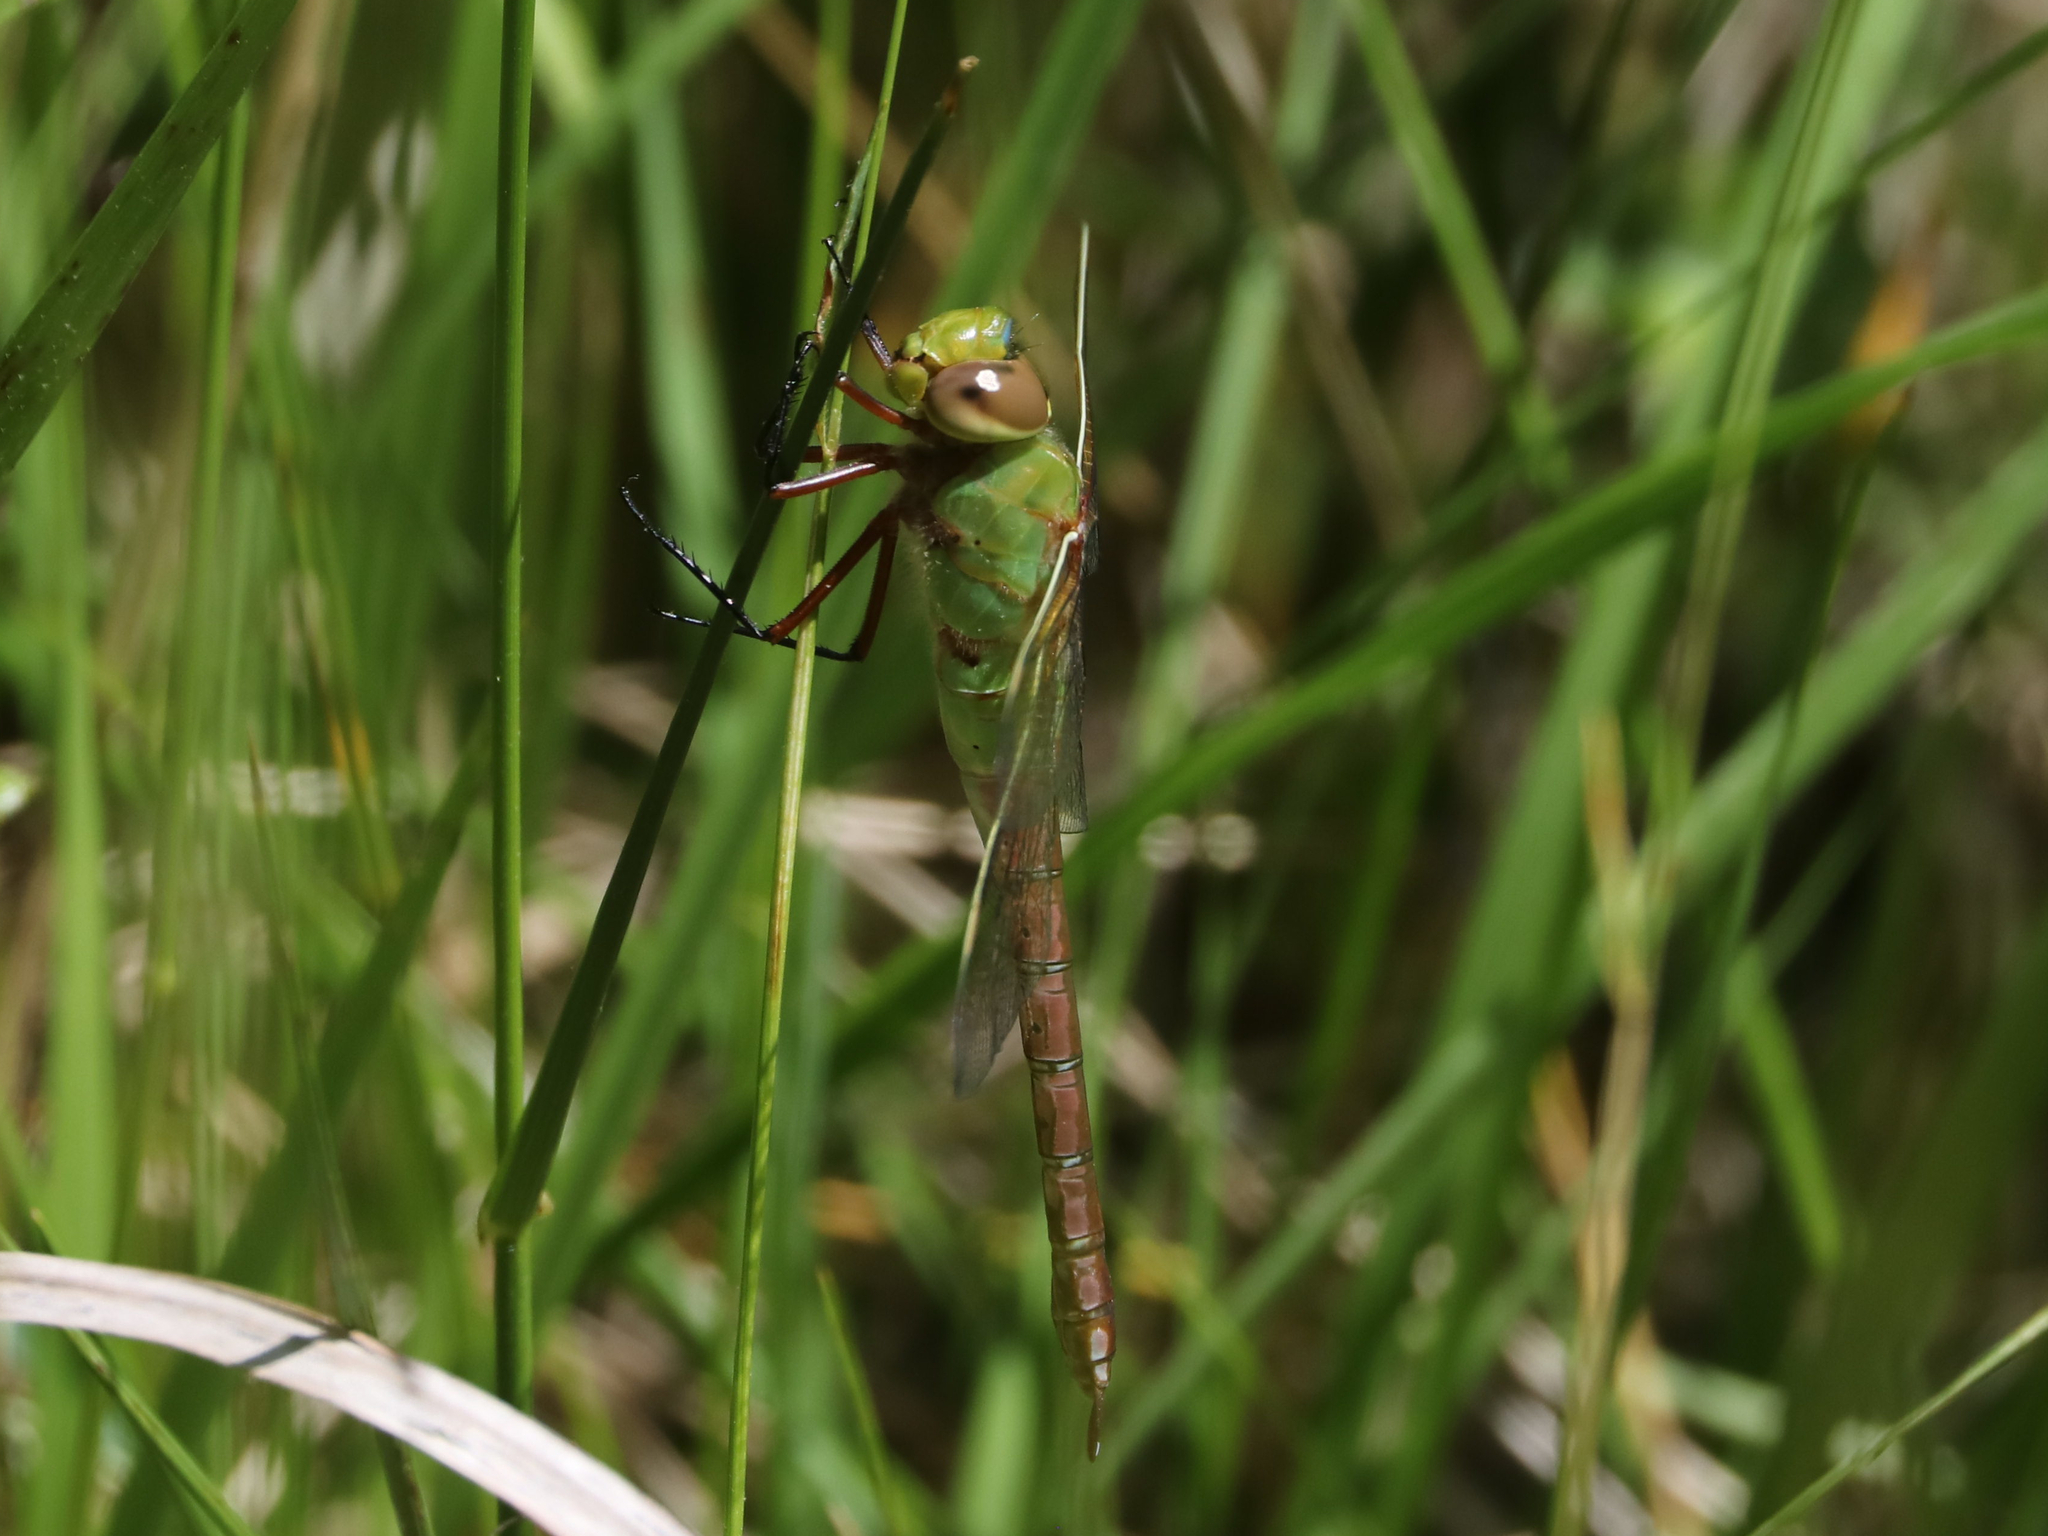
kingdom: Animalia
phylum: Arthropoda
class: Insecta
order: Odonata
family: Aeshnidae
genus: Anax
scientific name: Anax junius
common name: Common green darner
